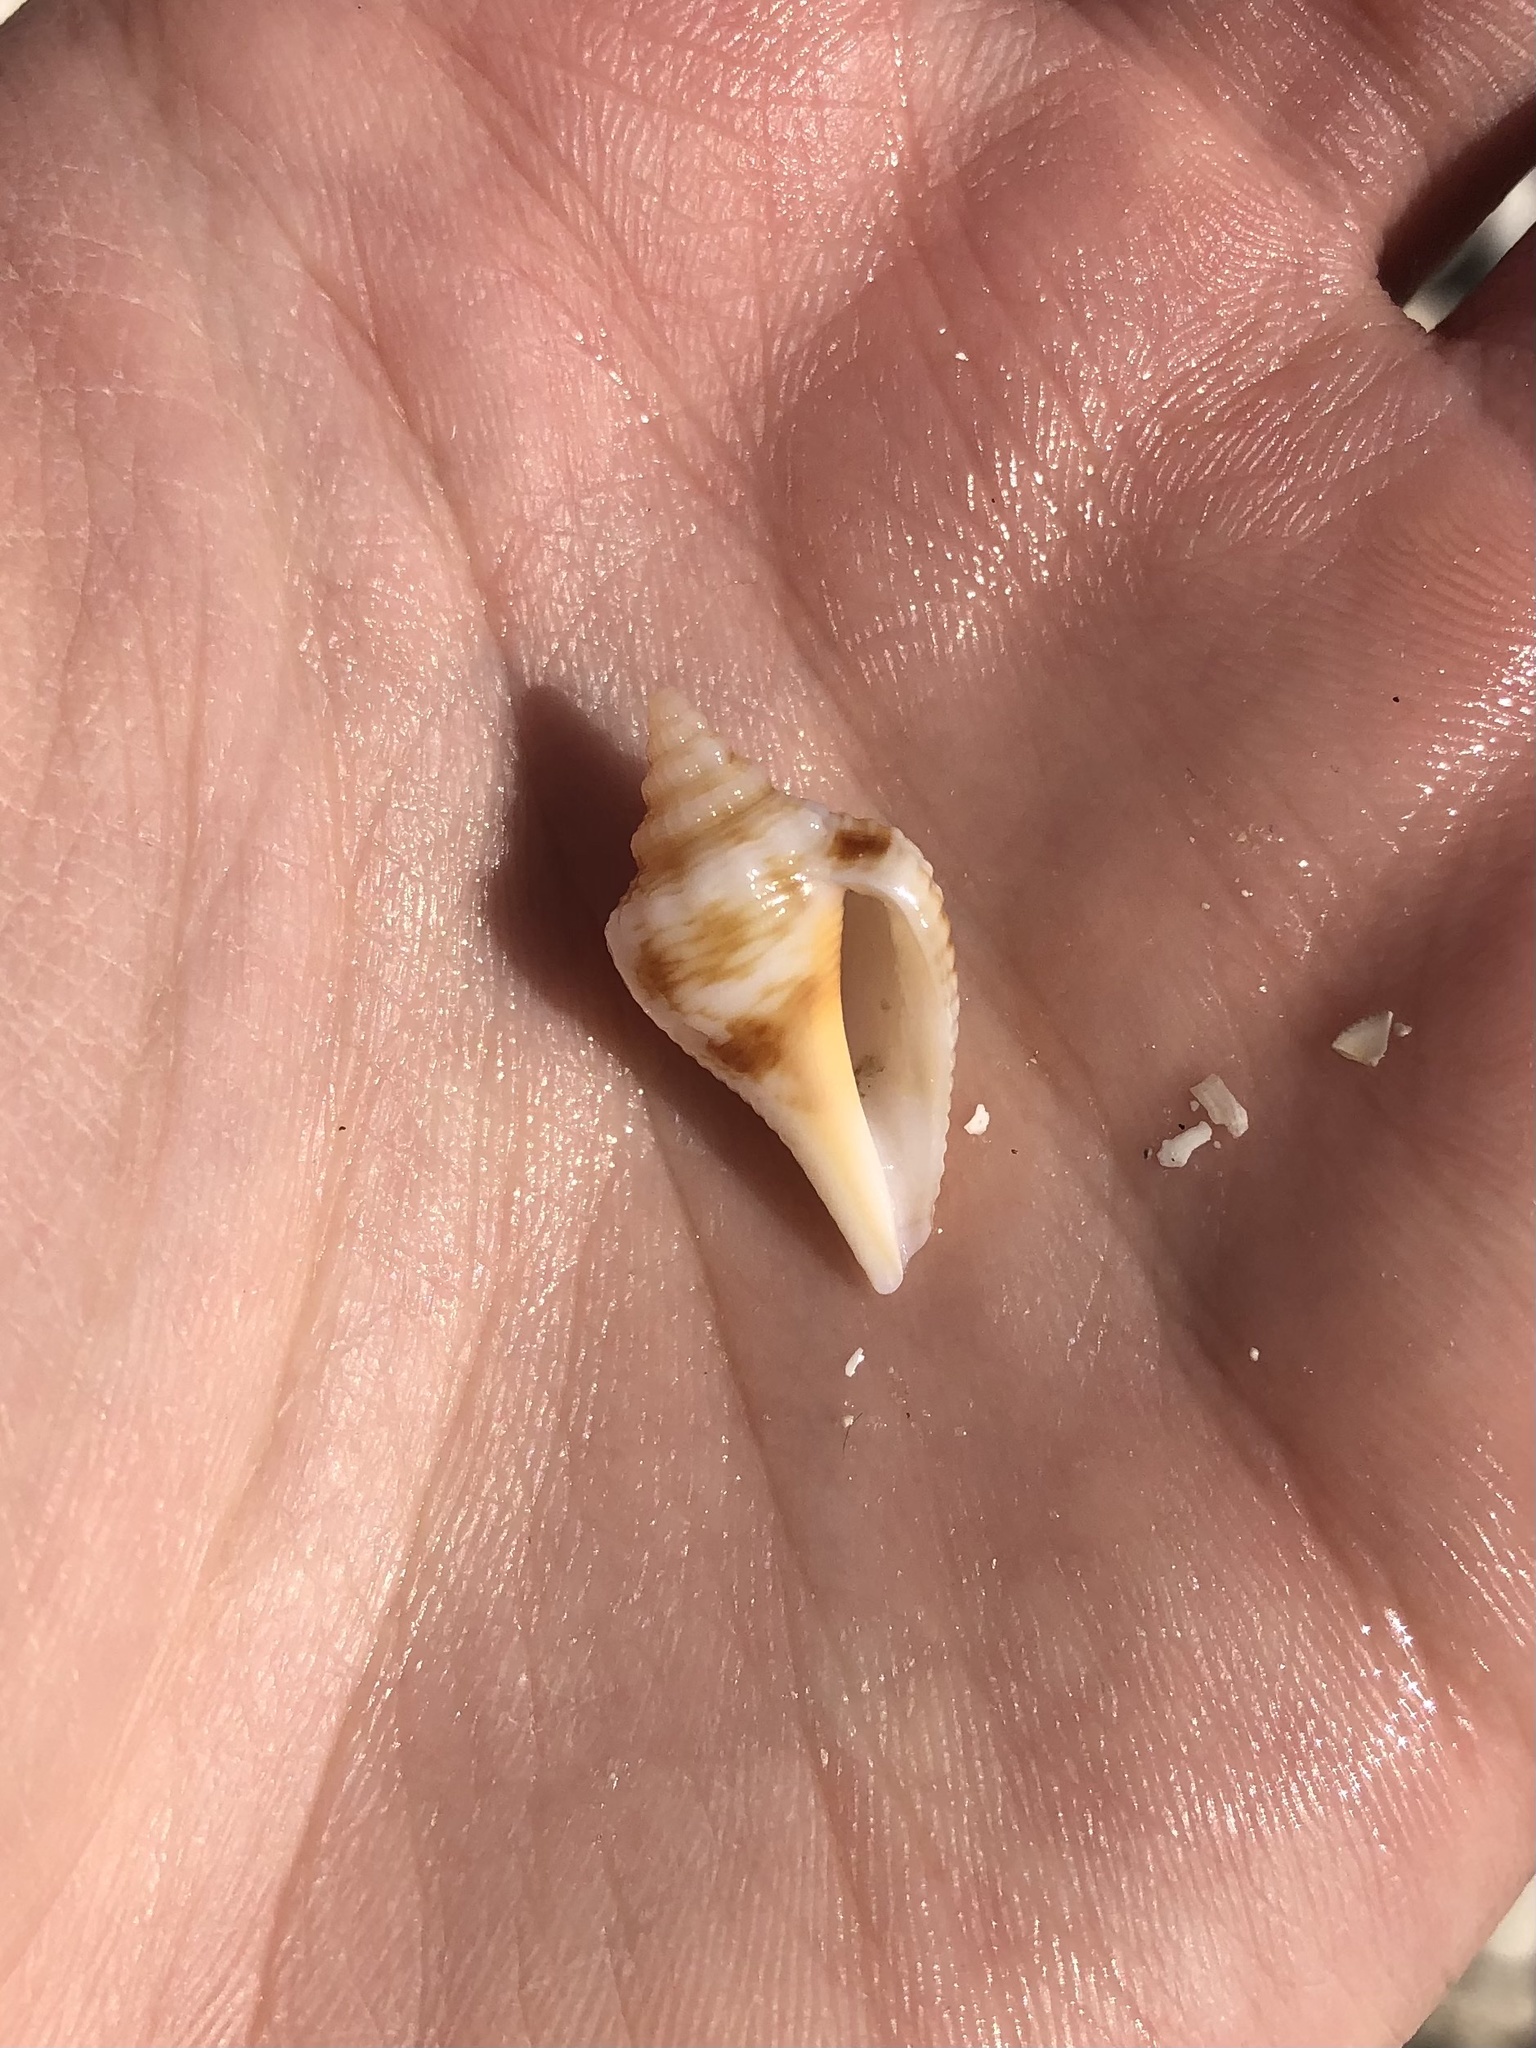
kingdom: Animalia
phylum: Mollusca
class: Gastropoda
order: Littorinimorpha
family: Strombidae
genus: Strombus
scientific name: Strombus alatus
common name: Florida fighting conch
